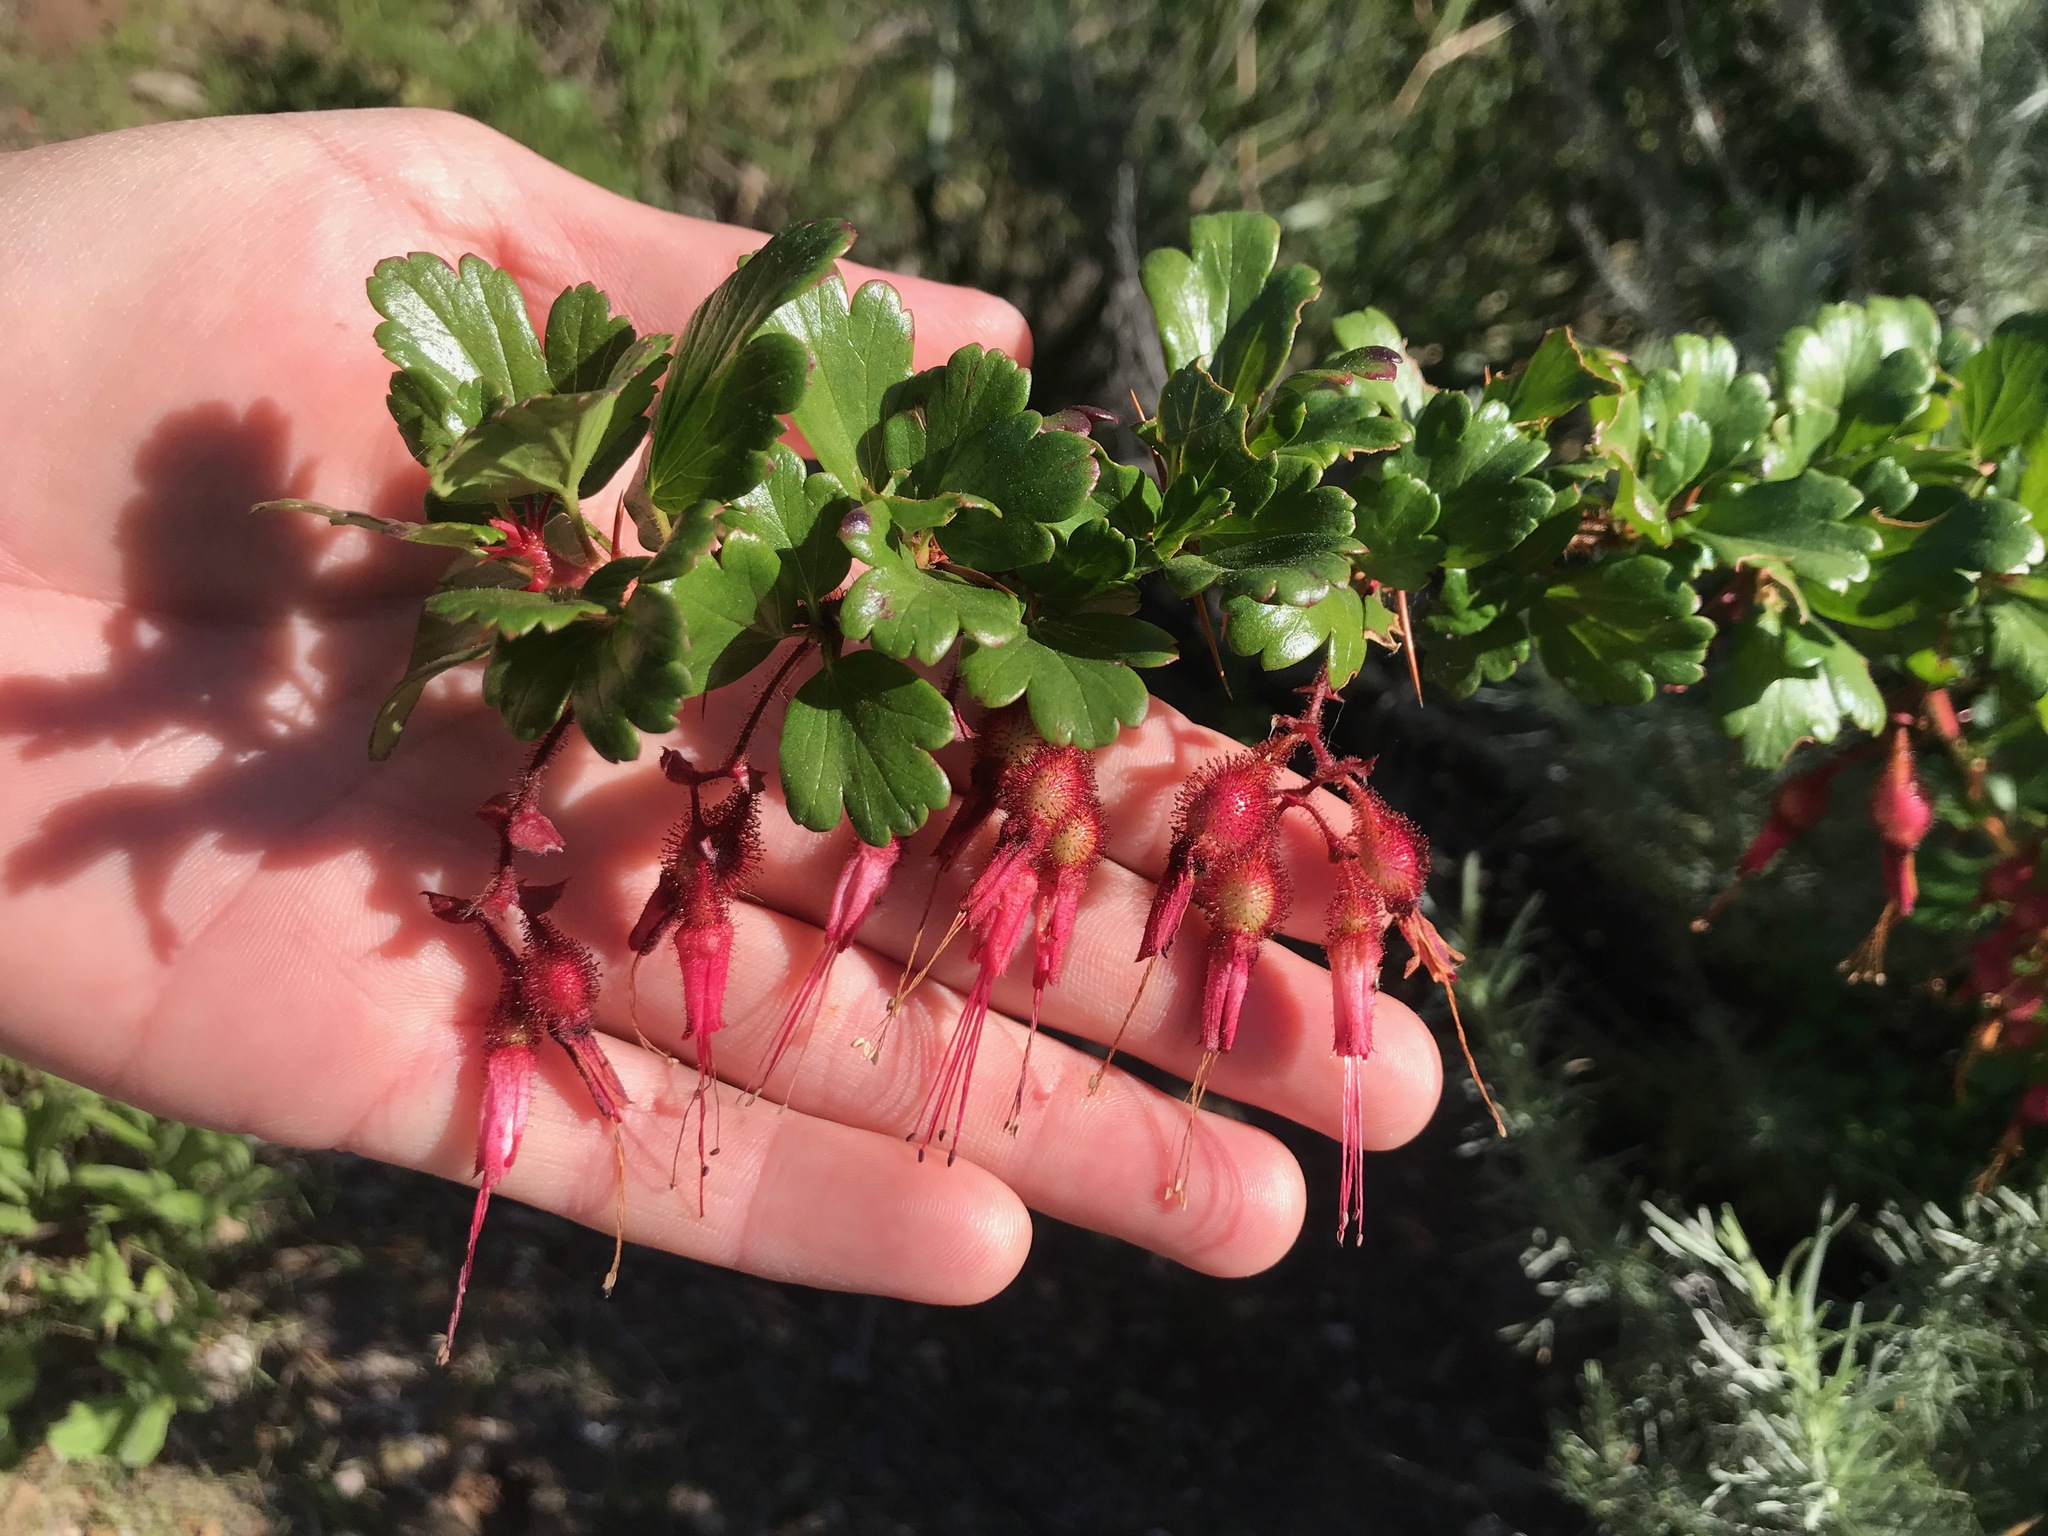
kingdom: Plantae
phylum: Tracheophyta
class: Magnoliopsida
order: Saxifragales
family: Grossulariaceae
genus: Ribes
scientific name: Ribes speciosum
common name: Fuchsia-flower gooseberry
